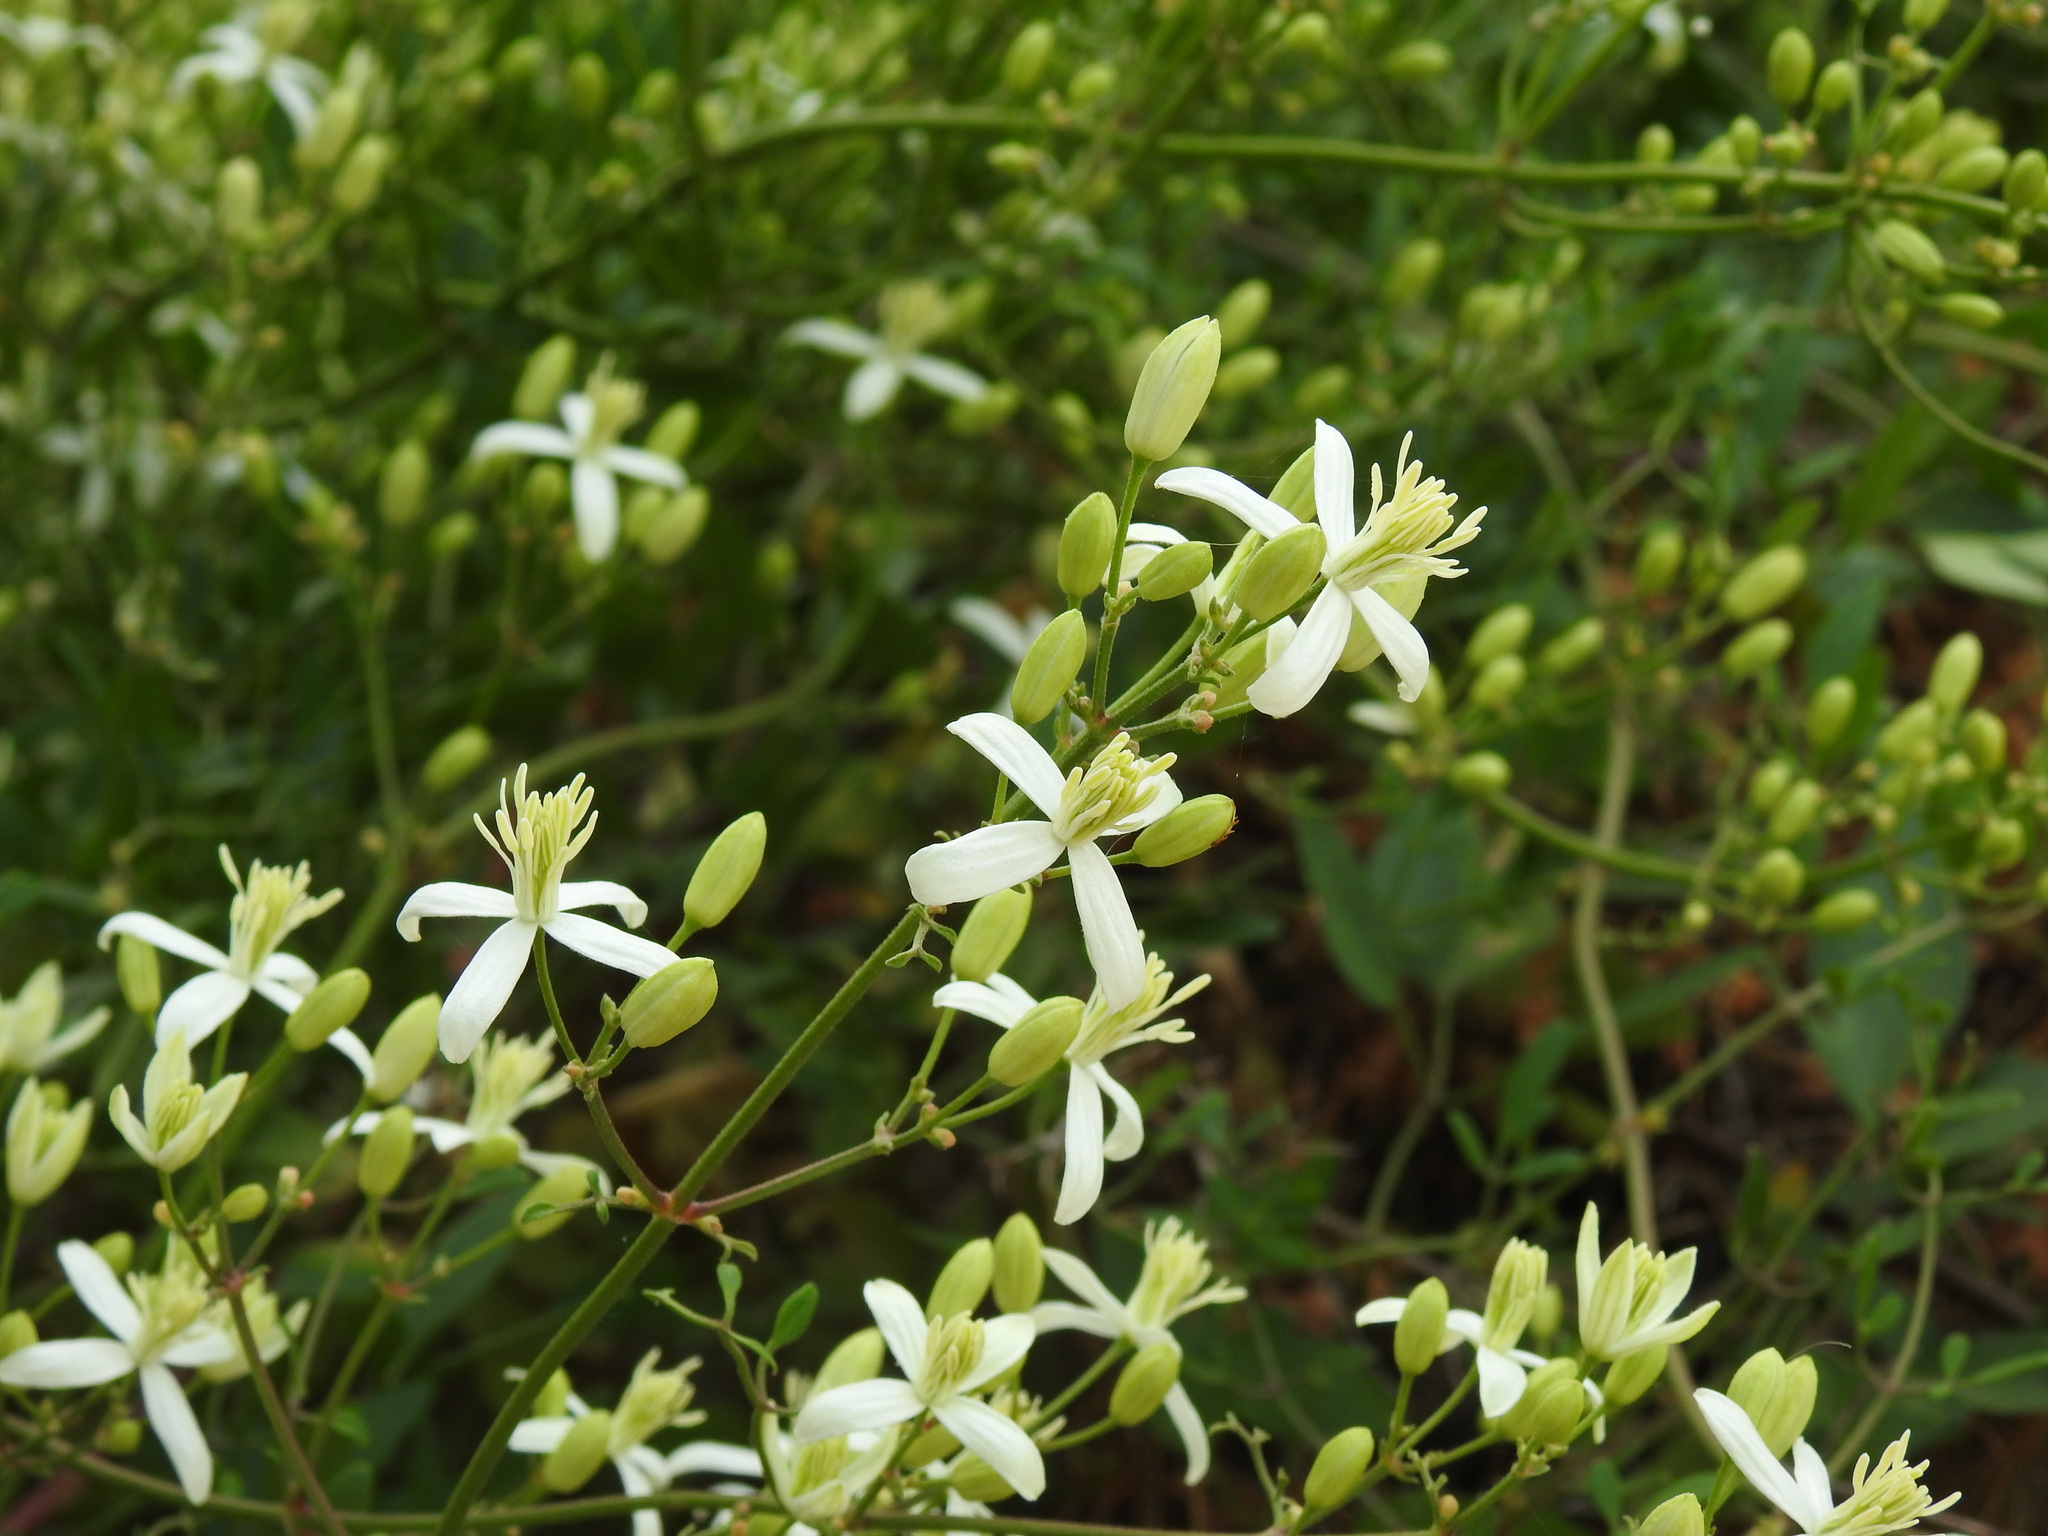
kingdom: Plantae
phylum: Tracheophyta
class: Magnoliopsida
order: Ranunculales
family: Ranunculaceae
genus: Clematis
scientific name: Clematis flammula
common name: Virgin's-bower
